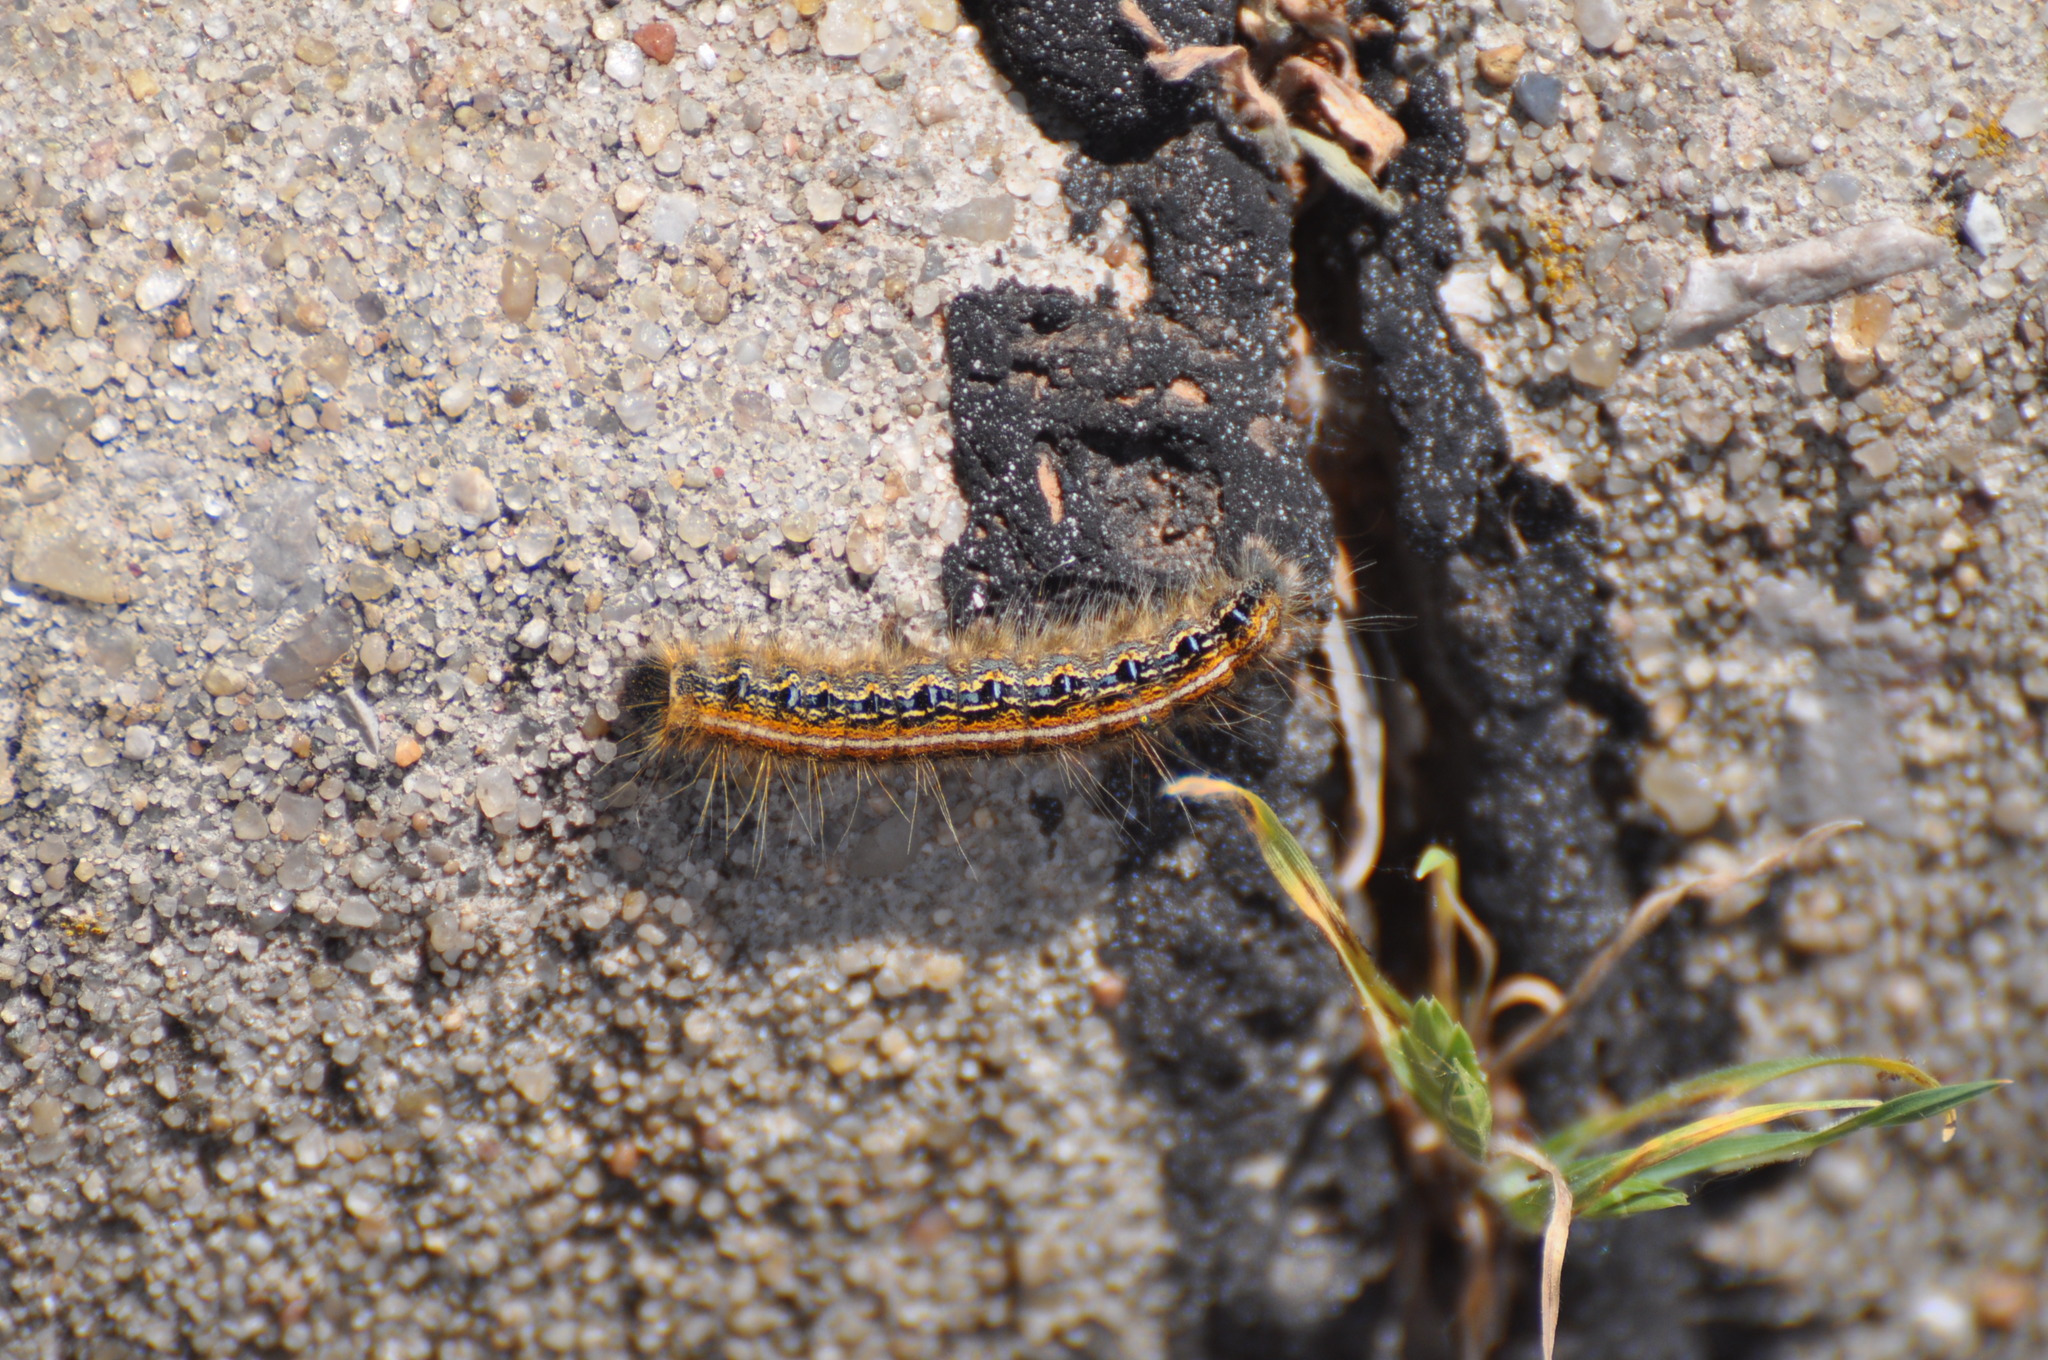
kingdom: Animalia
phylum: Arthropoda
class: Insecta
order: Lepidoptera
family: Lasiocampidae
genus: Malacosoma
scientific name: Malacosoma americana
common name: Eastern tent caterpillar moth
